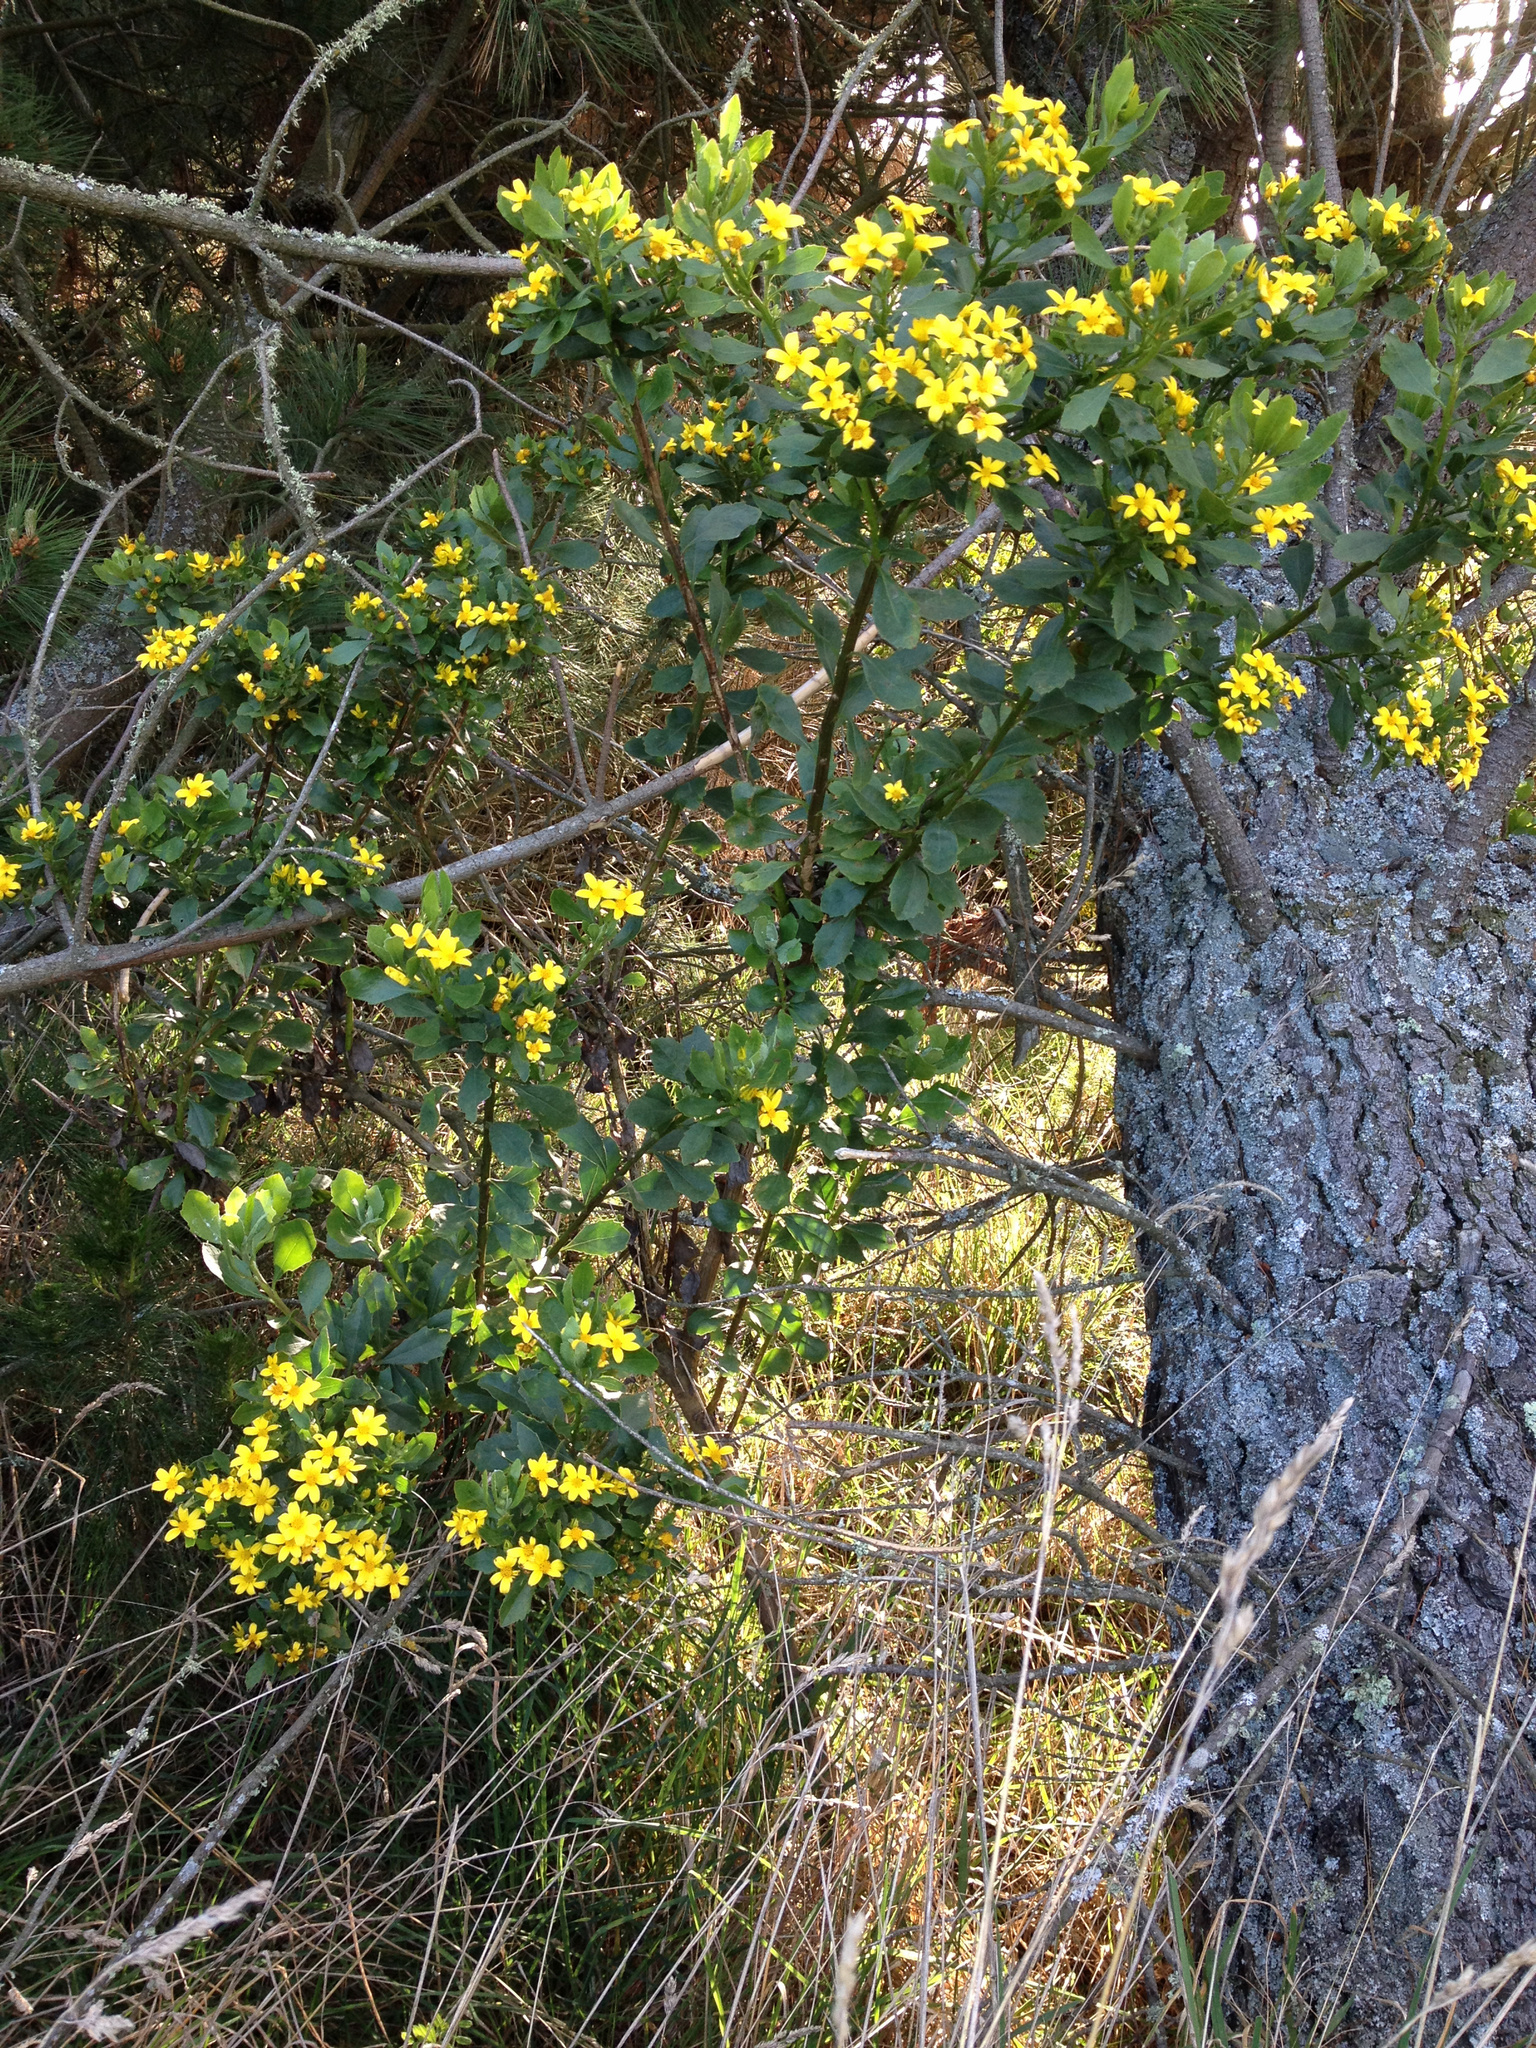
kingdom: Plantae
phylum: Tracheophyta
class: Magnoliopsida
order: Asterales
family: Asteraceae
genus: Osteospermum
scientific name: Osteospermum moniliferum
